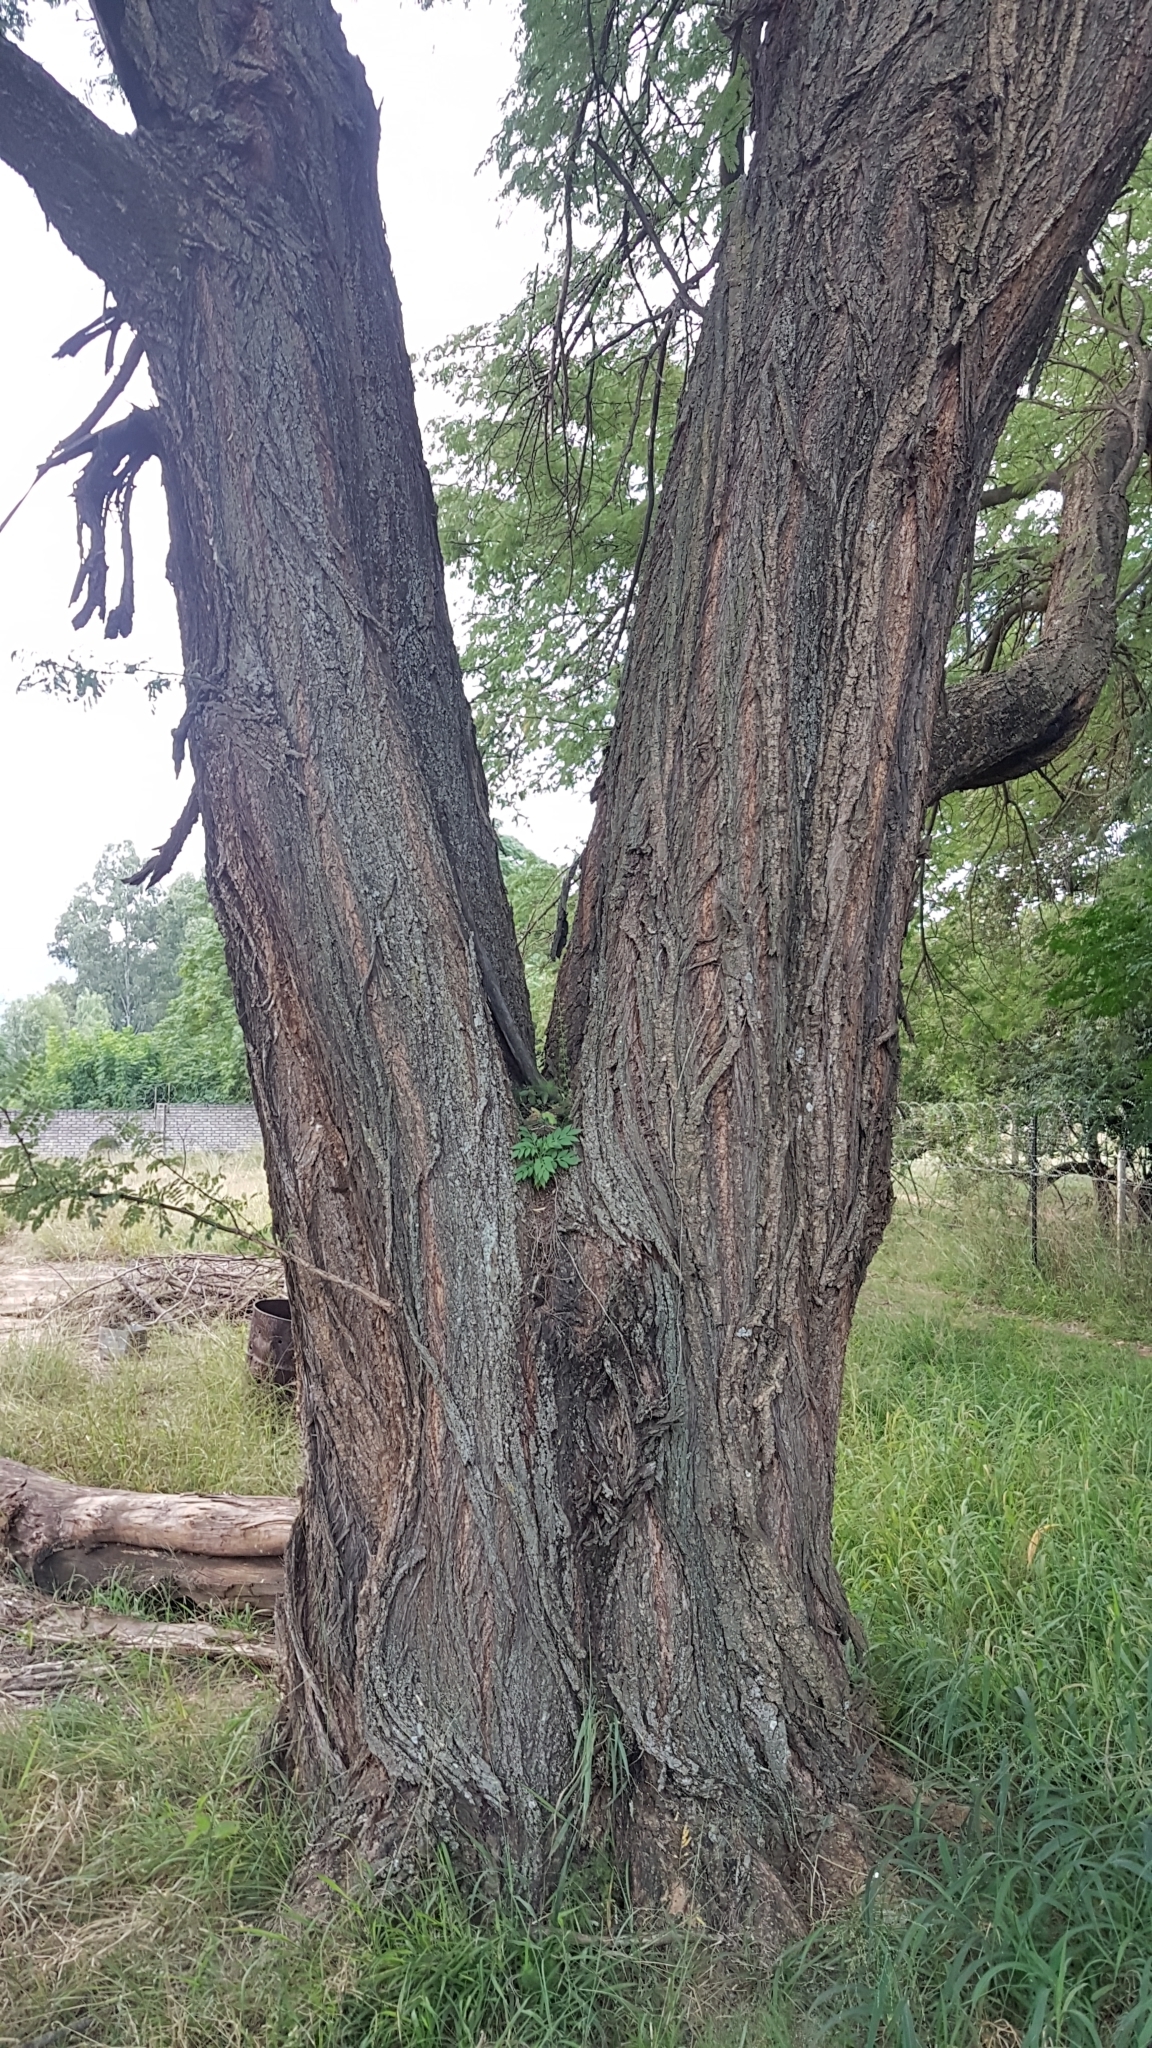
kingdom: Plantae
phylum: Tracheophyta
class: Magnoliopsida
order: Fabales
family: Fabaceae
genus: Acacia
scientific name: Acacia mearnsii
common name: Black wattle
